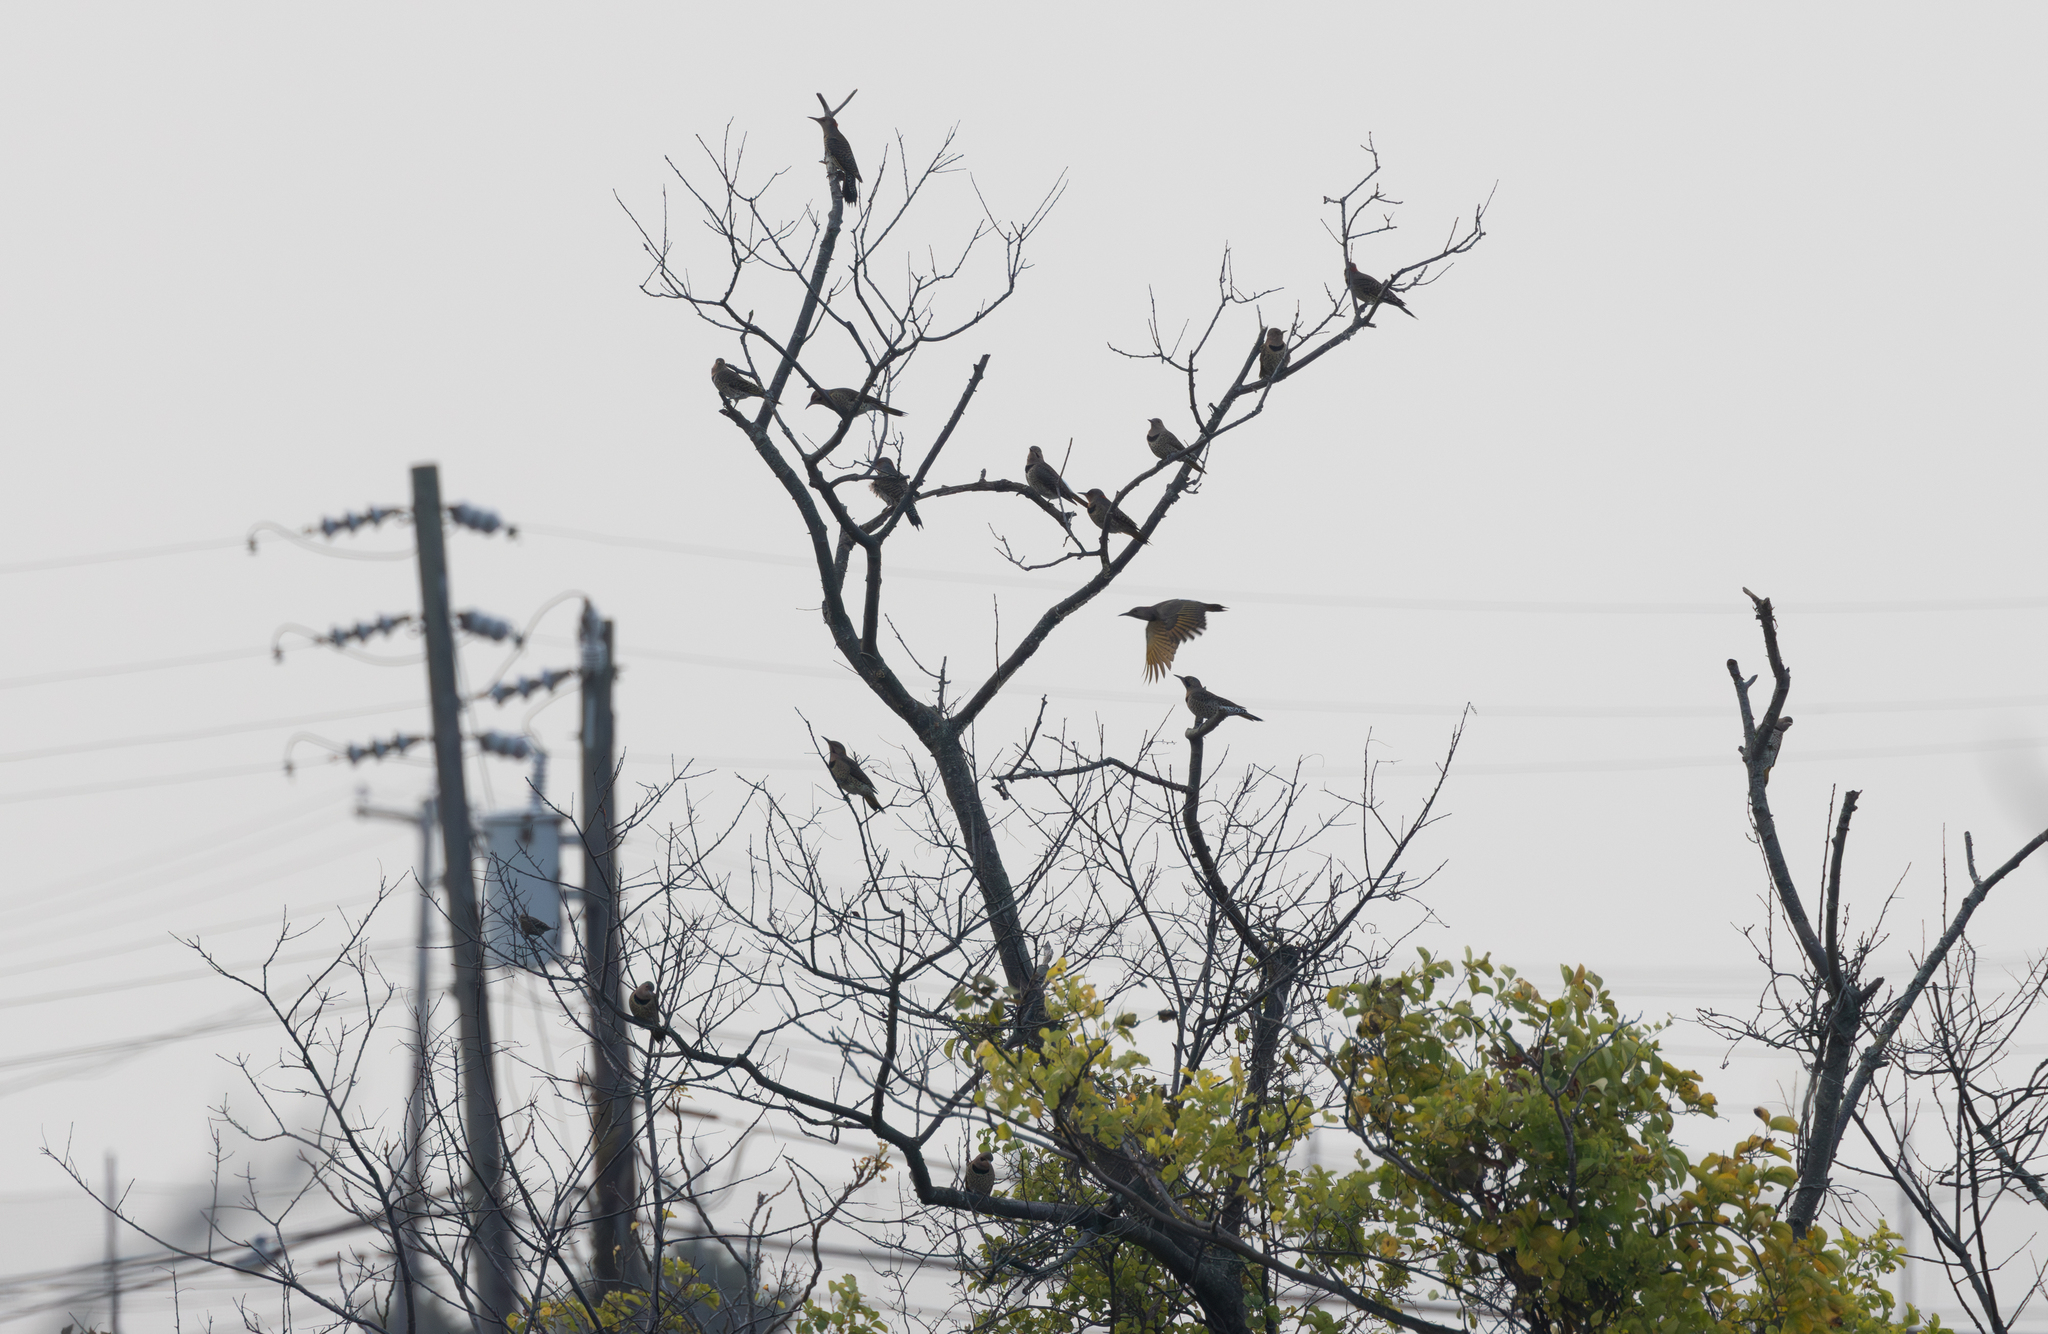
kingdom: Animalia
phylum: Chordata
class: Aves
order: Piciformes
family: Picidae
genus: Colaptes
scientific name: Colaptes auratus
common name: Northern flicker
